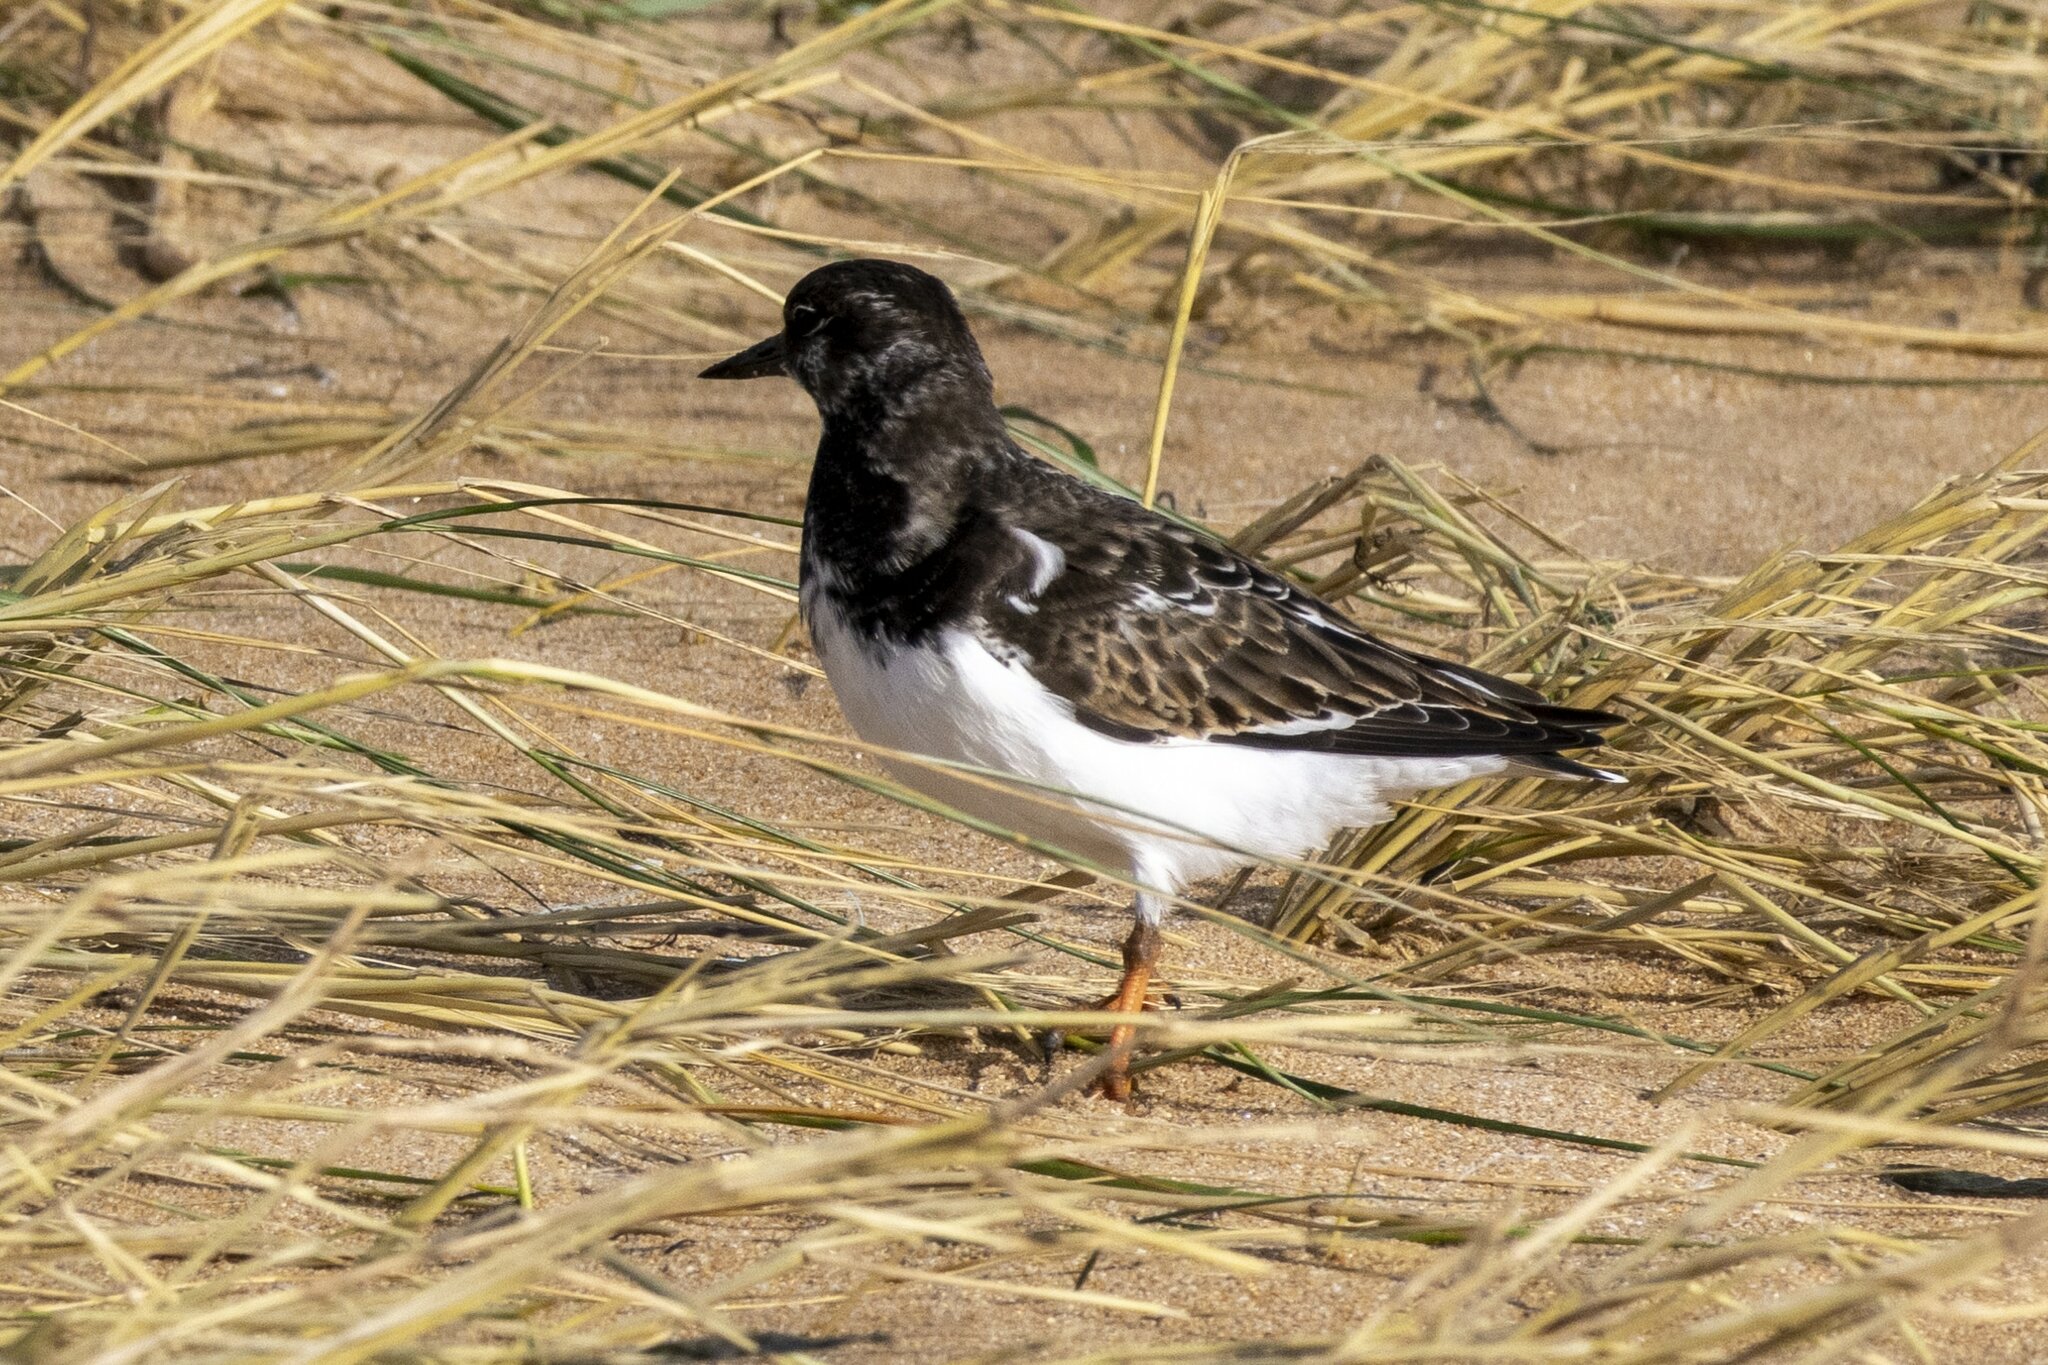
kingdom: Animalia
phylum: Chordata
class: Aves
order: Charadriiformes
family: Scolopacidae
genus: Arenaria
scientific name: Arenaria interpres
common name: Ruddy turnstone
